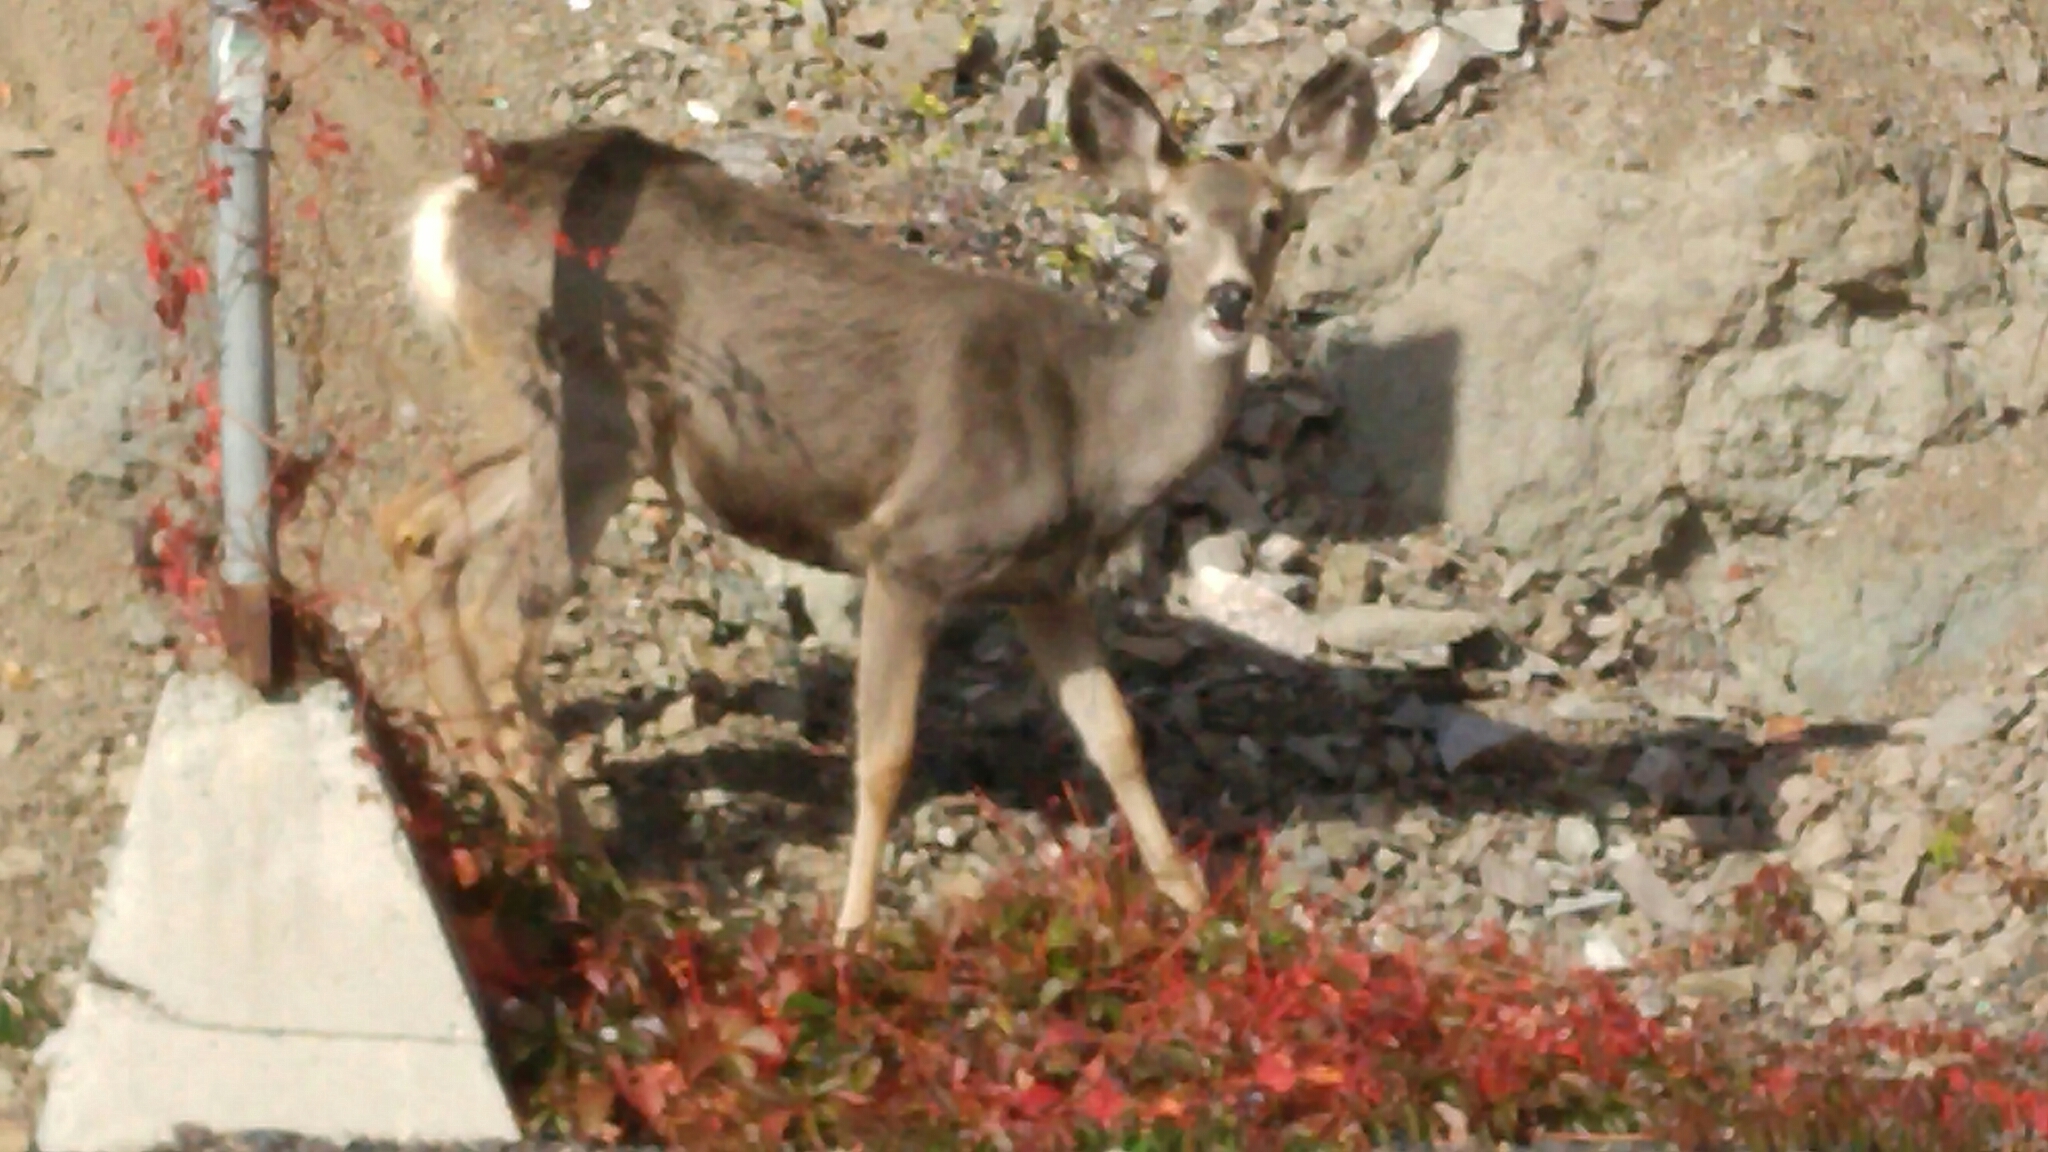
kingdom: Animalia
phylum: Chordata
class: Mammalia
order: Artiodactyla
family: Cervidae
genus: Odocoileus
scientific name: Odocoileus hemionus
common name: Mule deer
